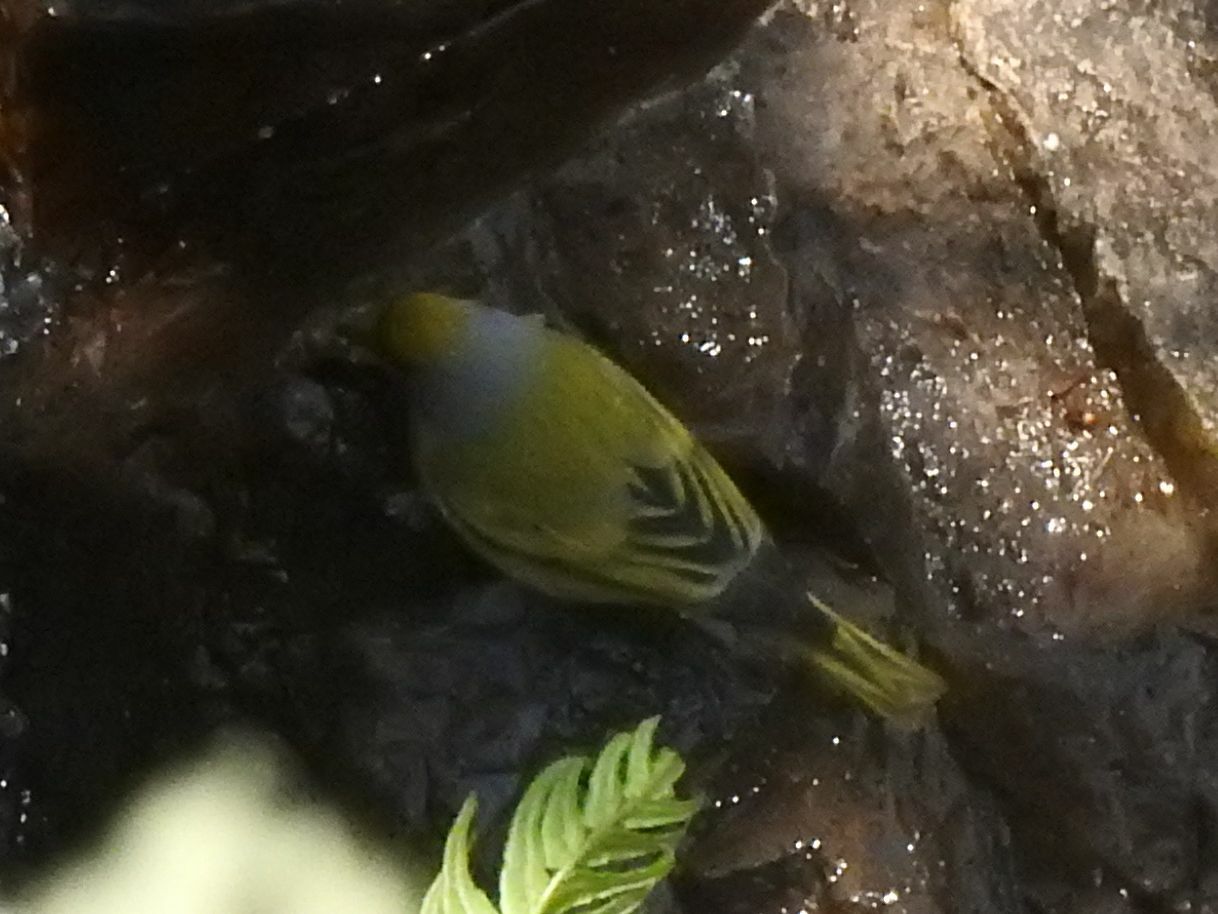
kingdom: Animalia
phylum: Chordata
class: Aves
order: Passeriformes
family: Fringillidae
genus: Serinus
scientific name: Serinus canicollis
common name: Cape canary
